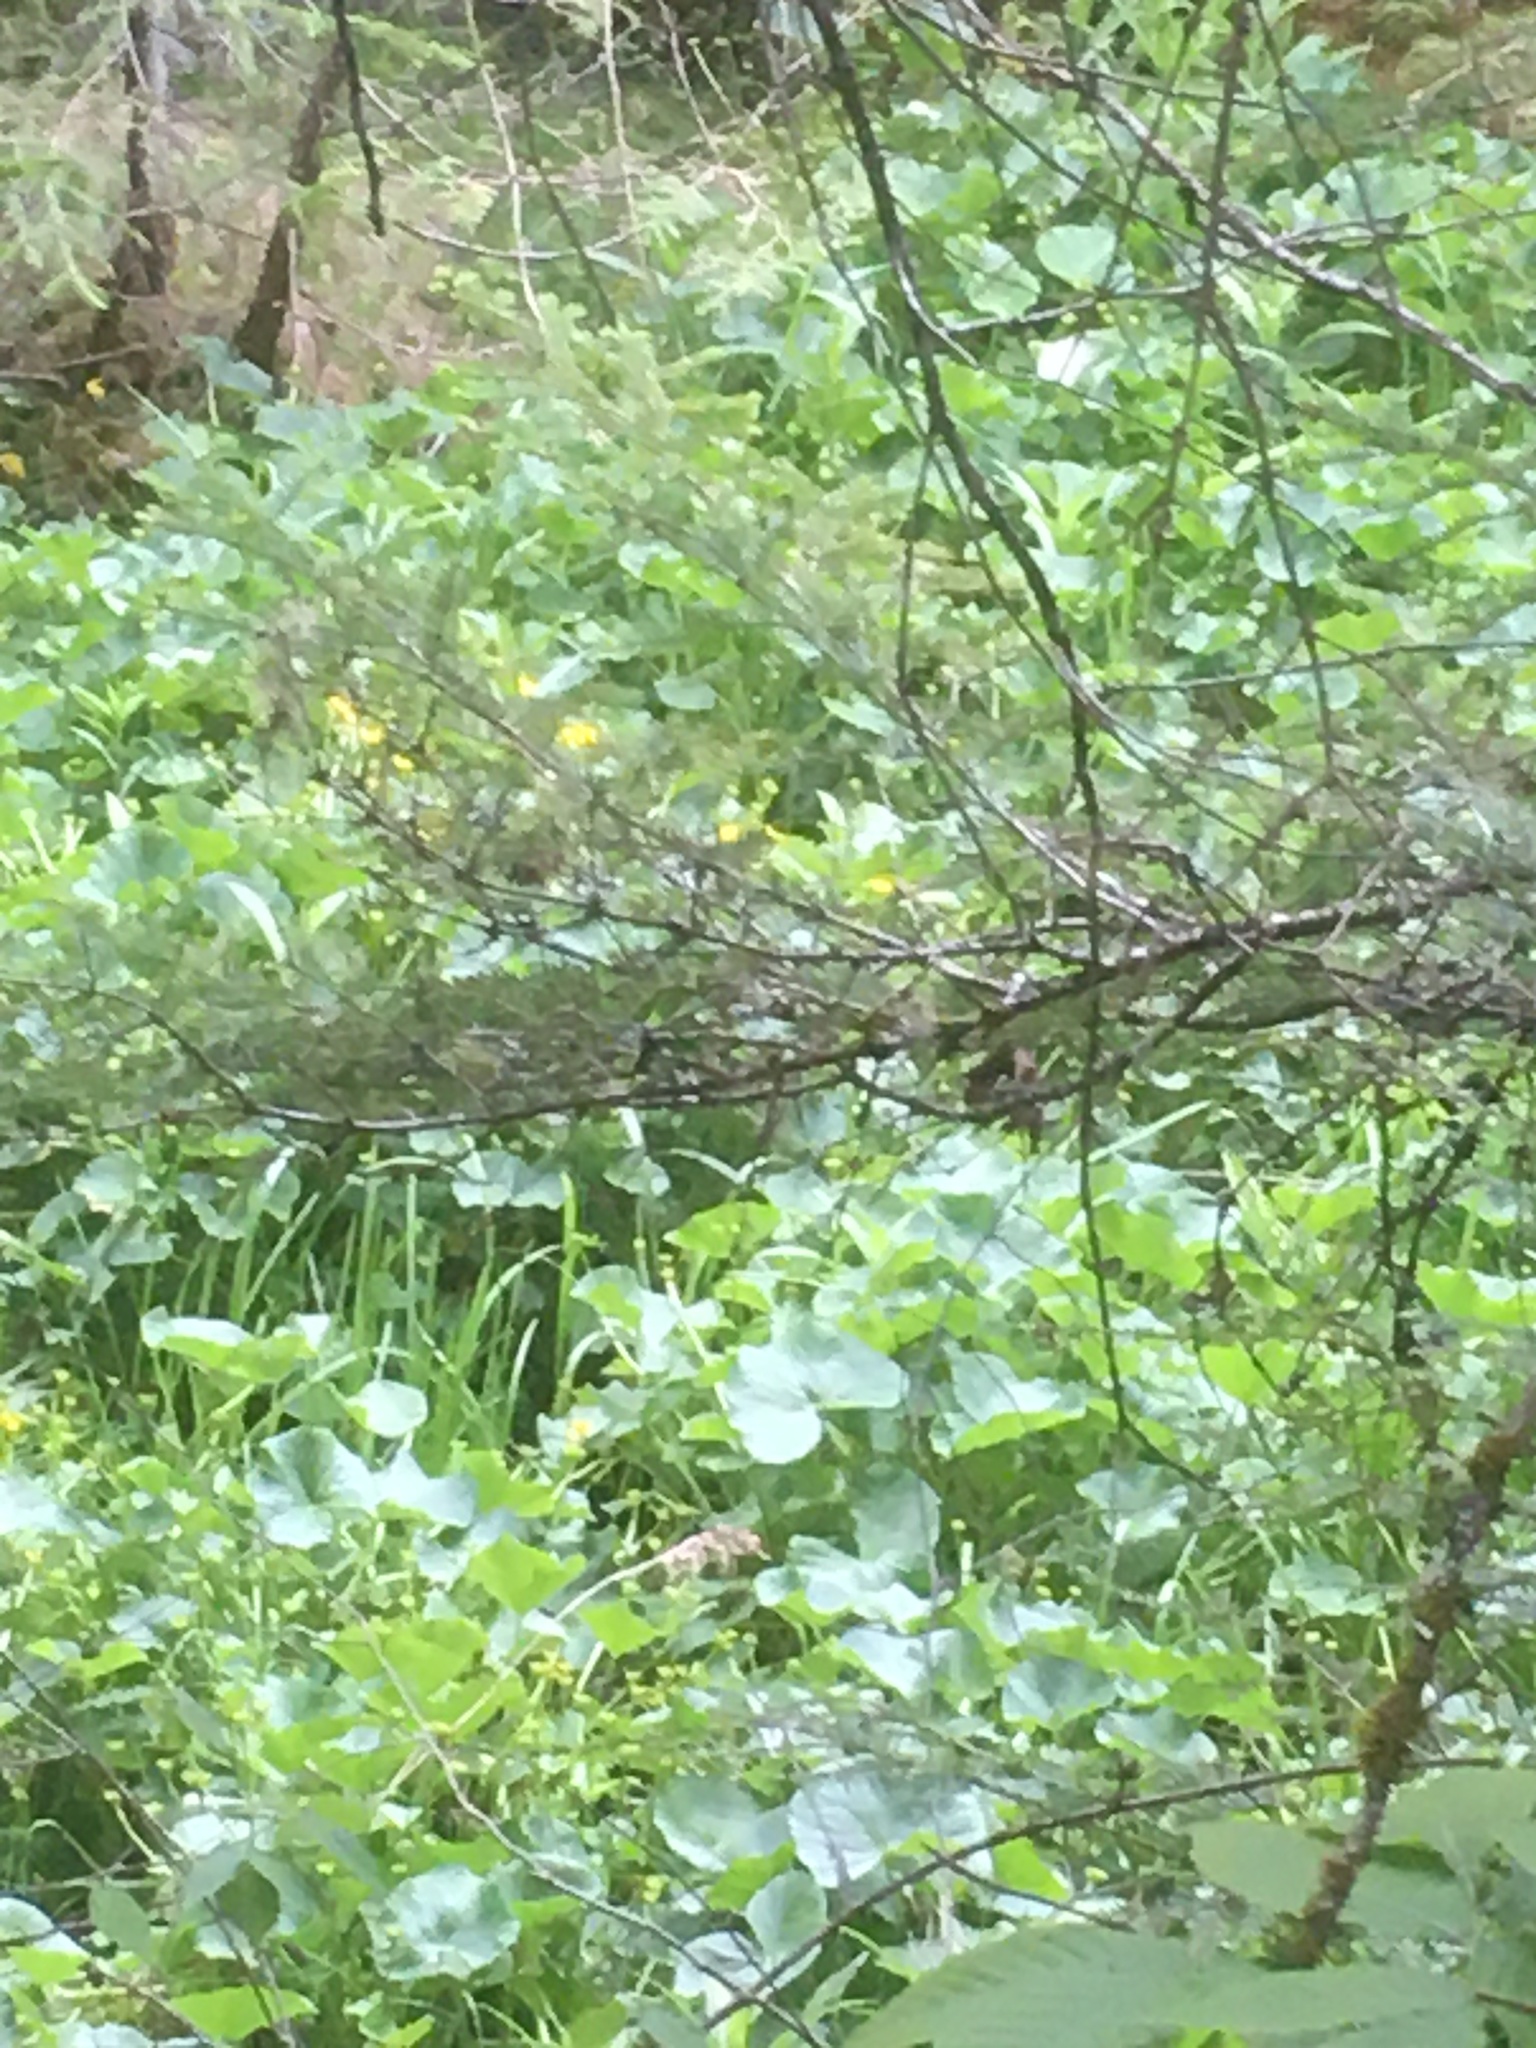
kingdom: Plantae
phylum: Tracheophyta
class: Magnoliopsida
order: Ranunculales
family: Ranunculaceae
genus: Caltha
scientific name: Caltha palustris
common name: Marsh marigold
